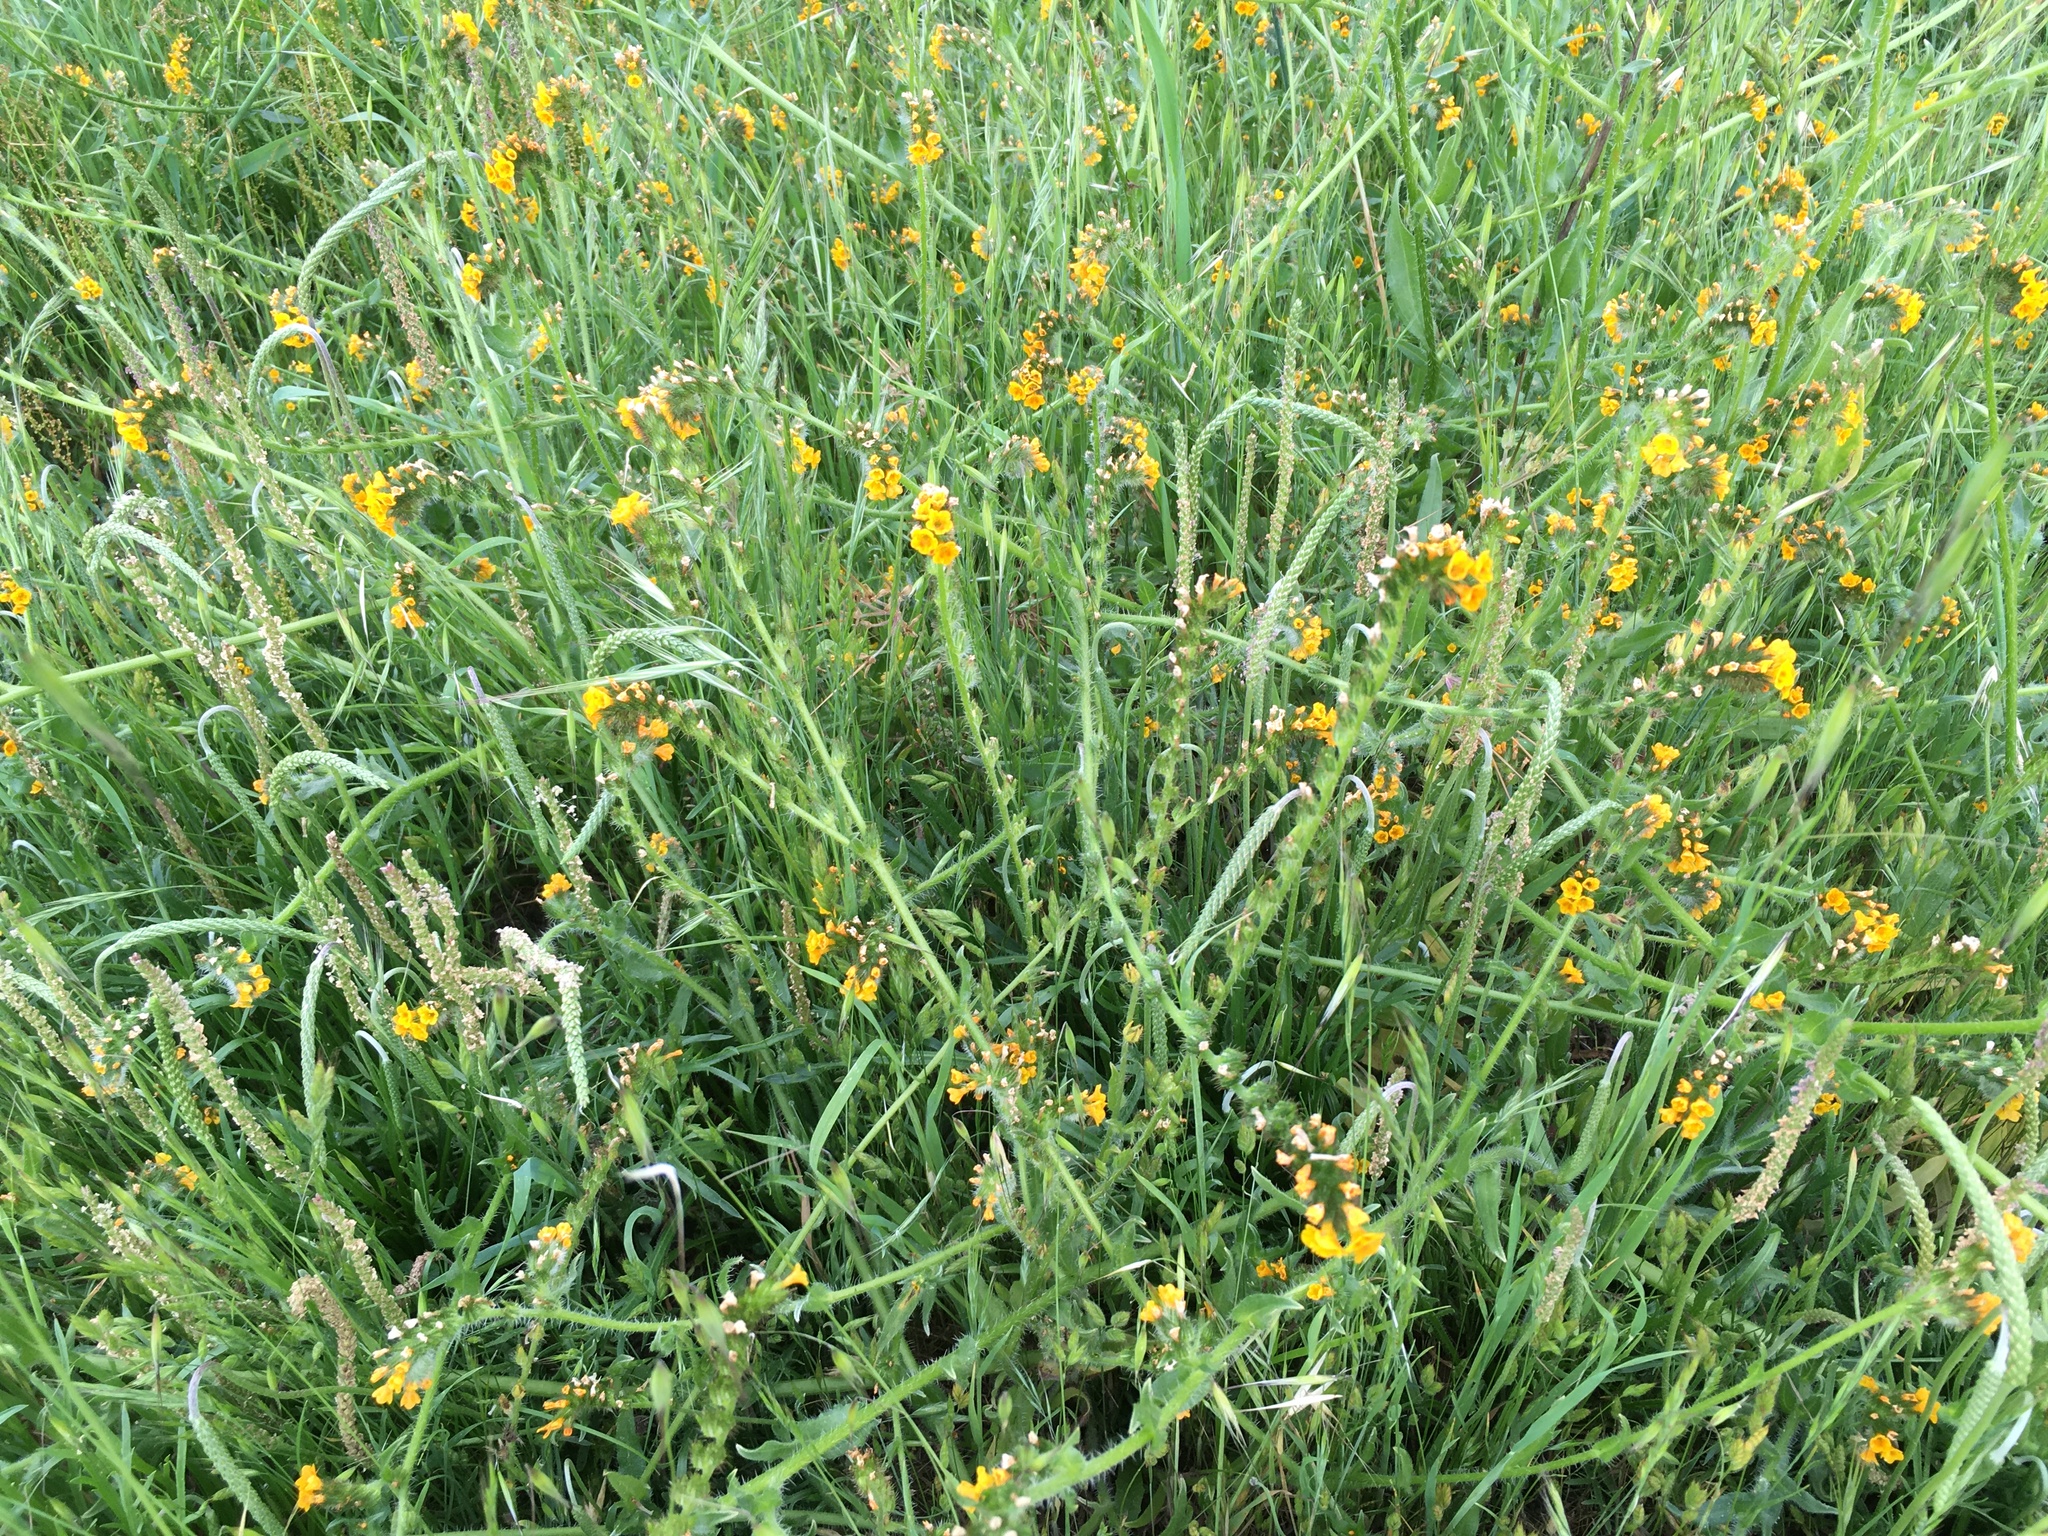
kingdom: Plantae
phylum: Tracheophyta
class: Magnoliopsida
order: Boraginales
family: Boraginaceae
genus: Amsinckia
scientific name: Amsinckia menziesii
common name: Menzies' fiddleneck
